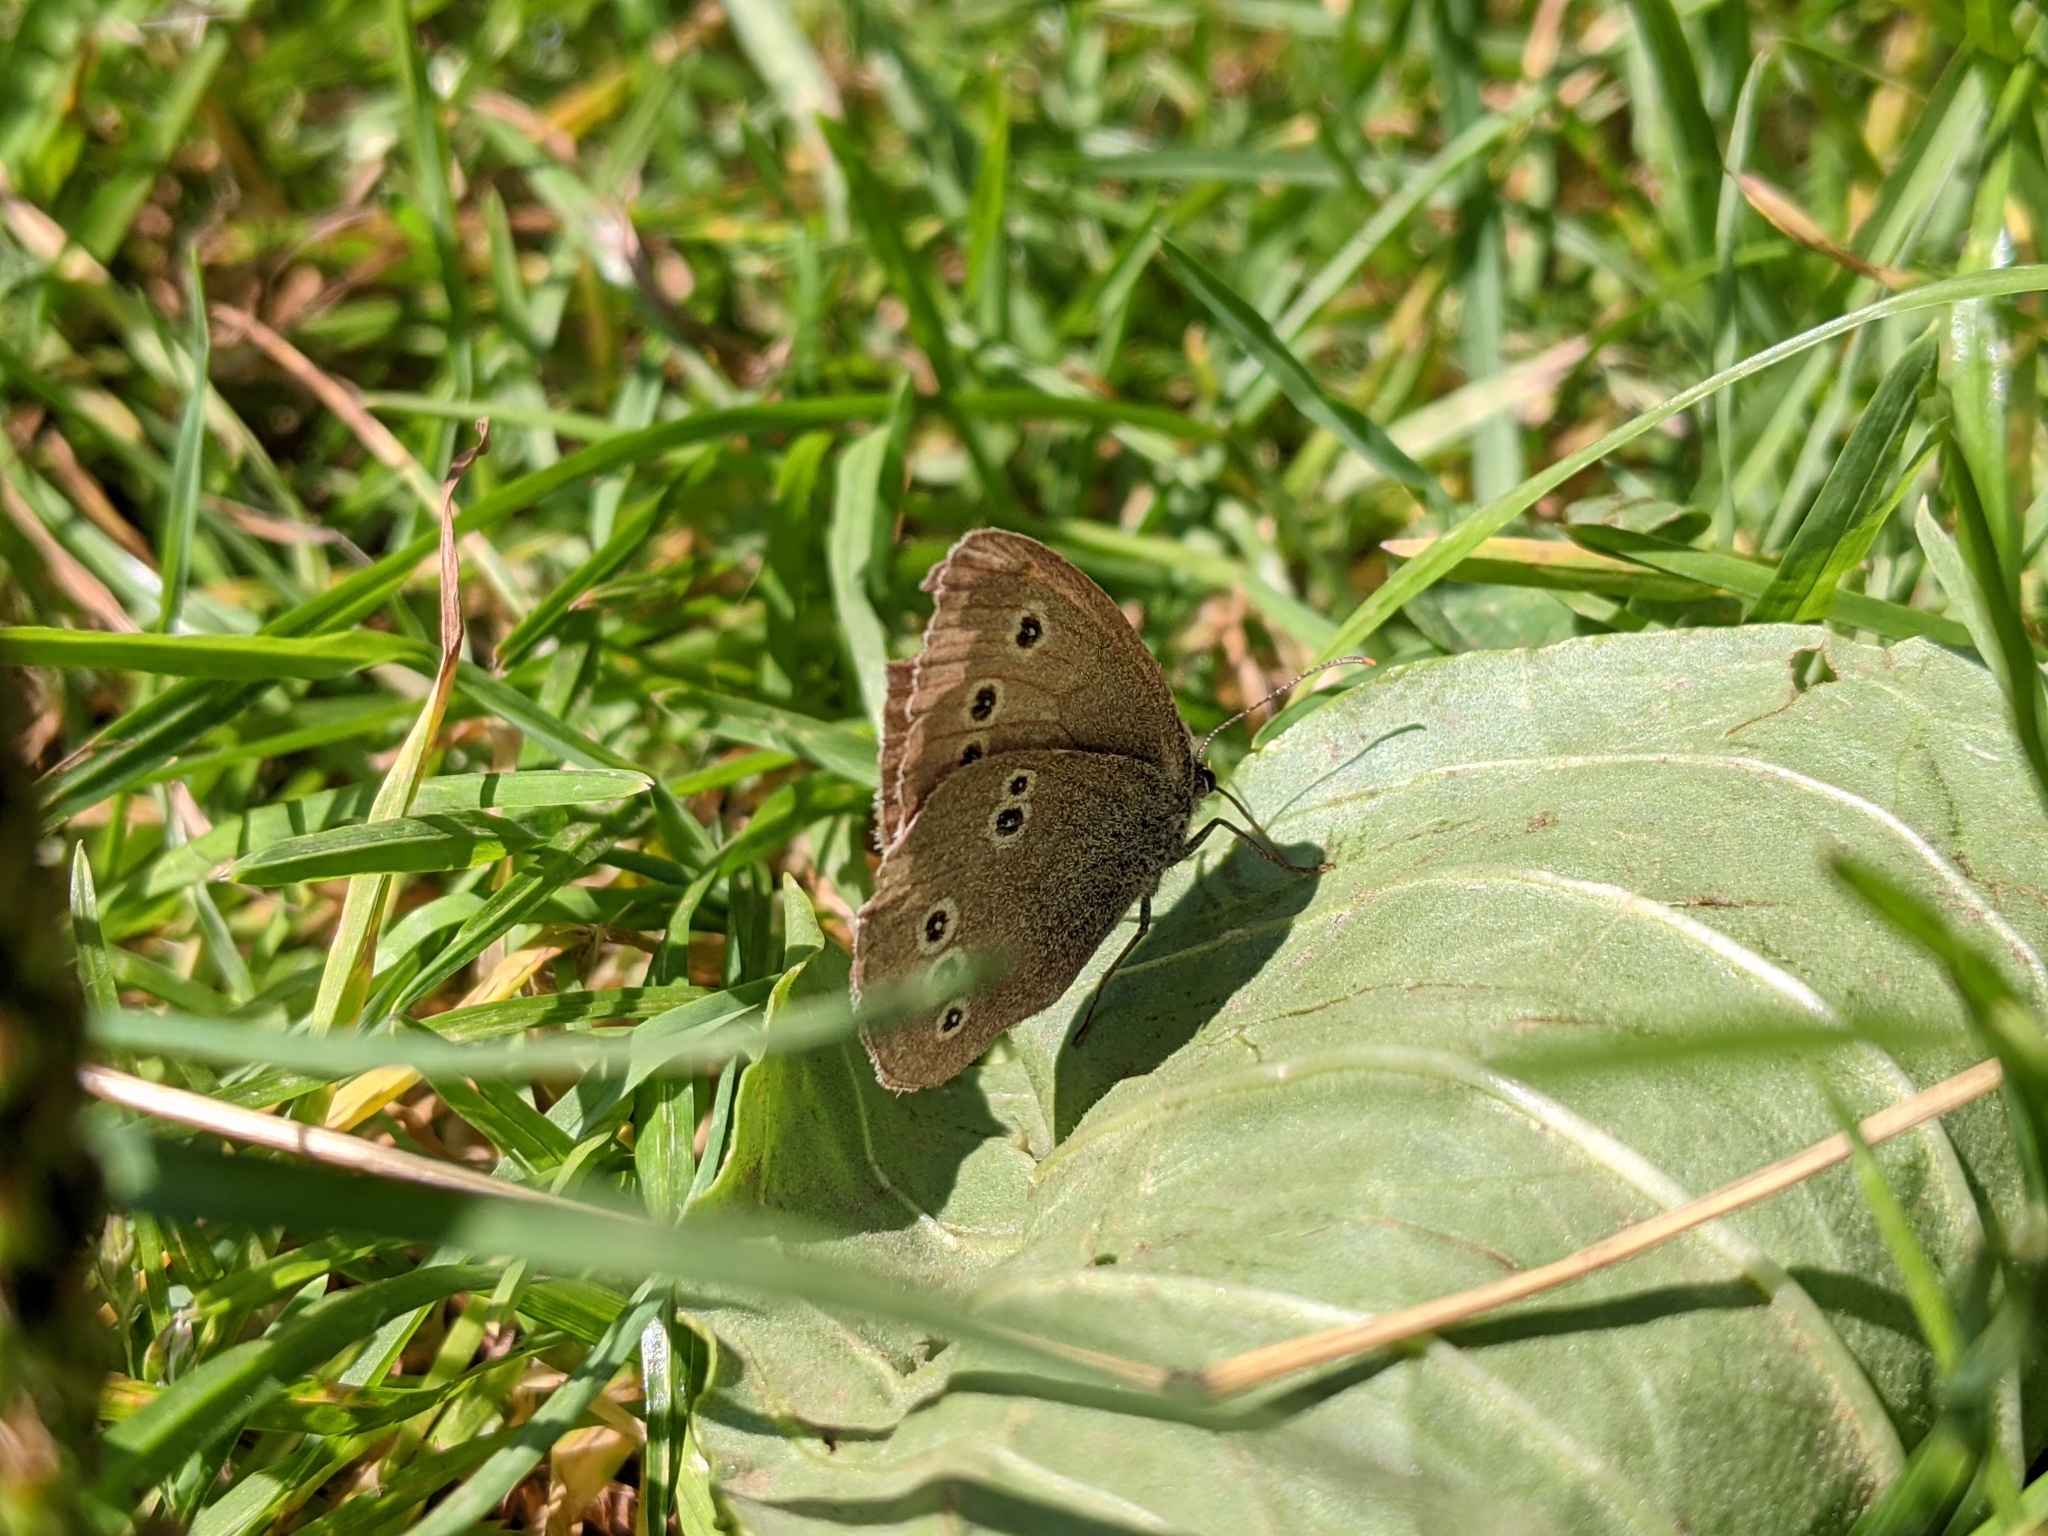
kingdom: Animalia
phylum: Arthropoda
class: Insecta
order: Lepidoptera
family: Nymphalidae
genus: Aphantopus
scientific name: Aphantopus hyperantus
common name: Ringlet
